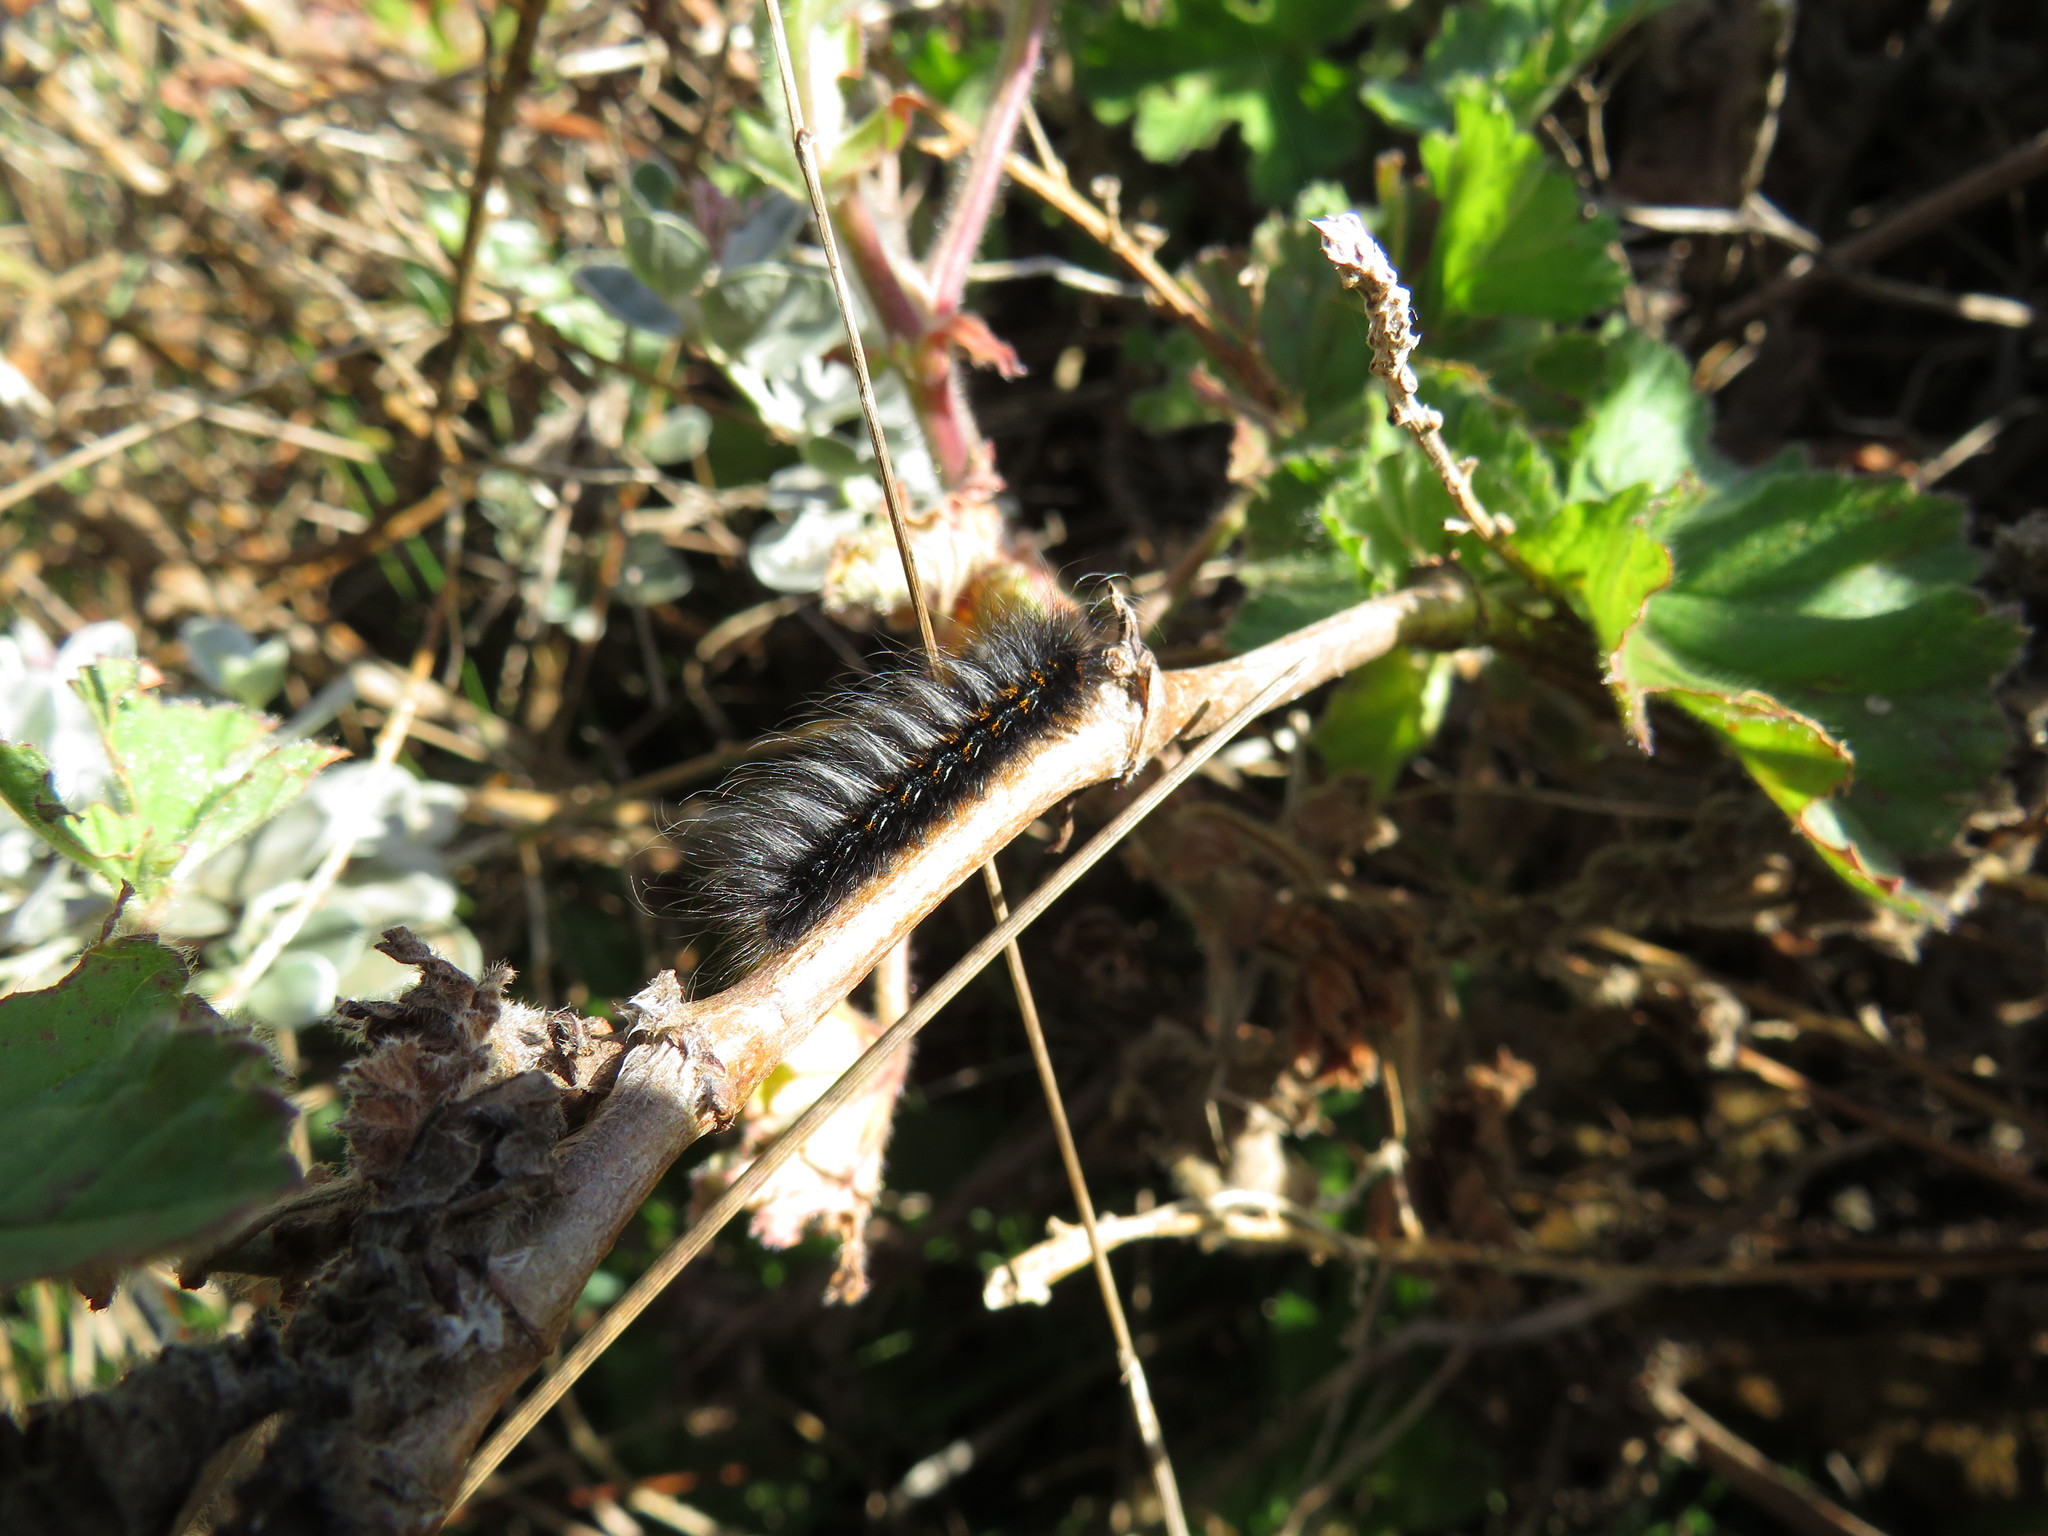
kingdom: Animalia
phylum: Arthropoda
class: Insecta
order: Lepidoptera
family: Lasiocampidae
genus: Mesocelis
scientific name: Mesocelis monticola
